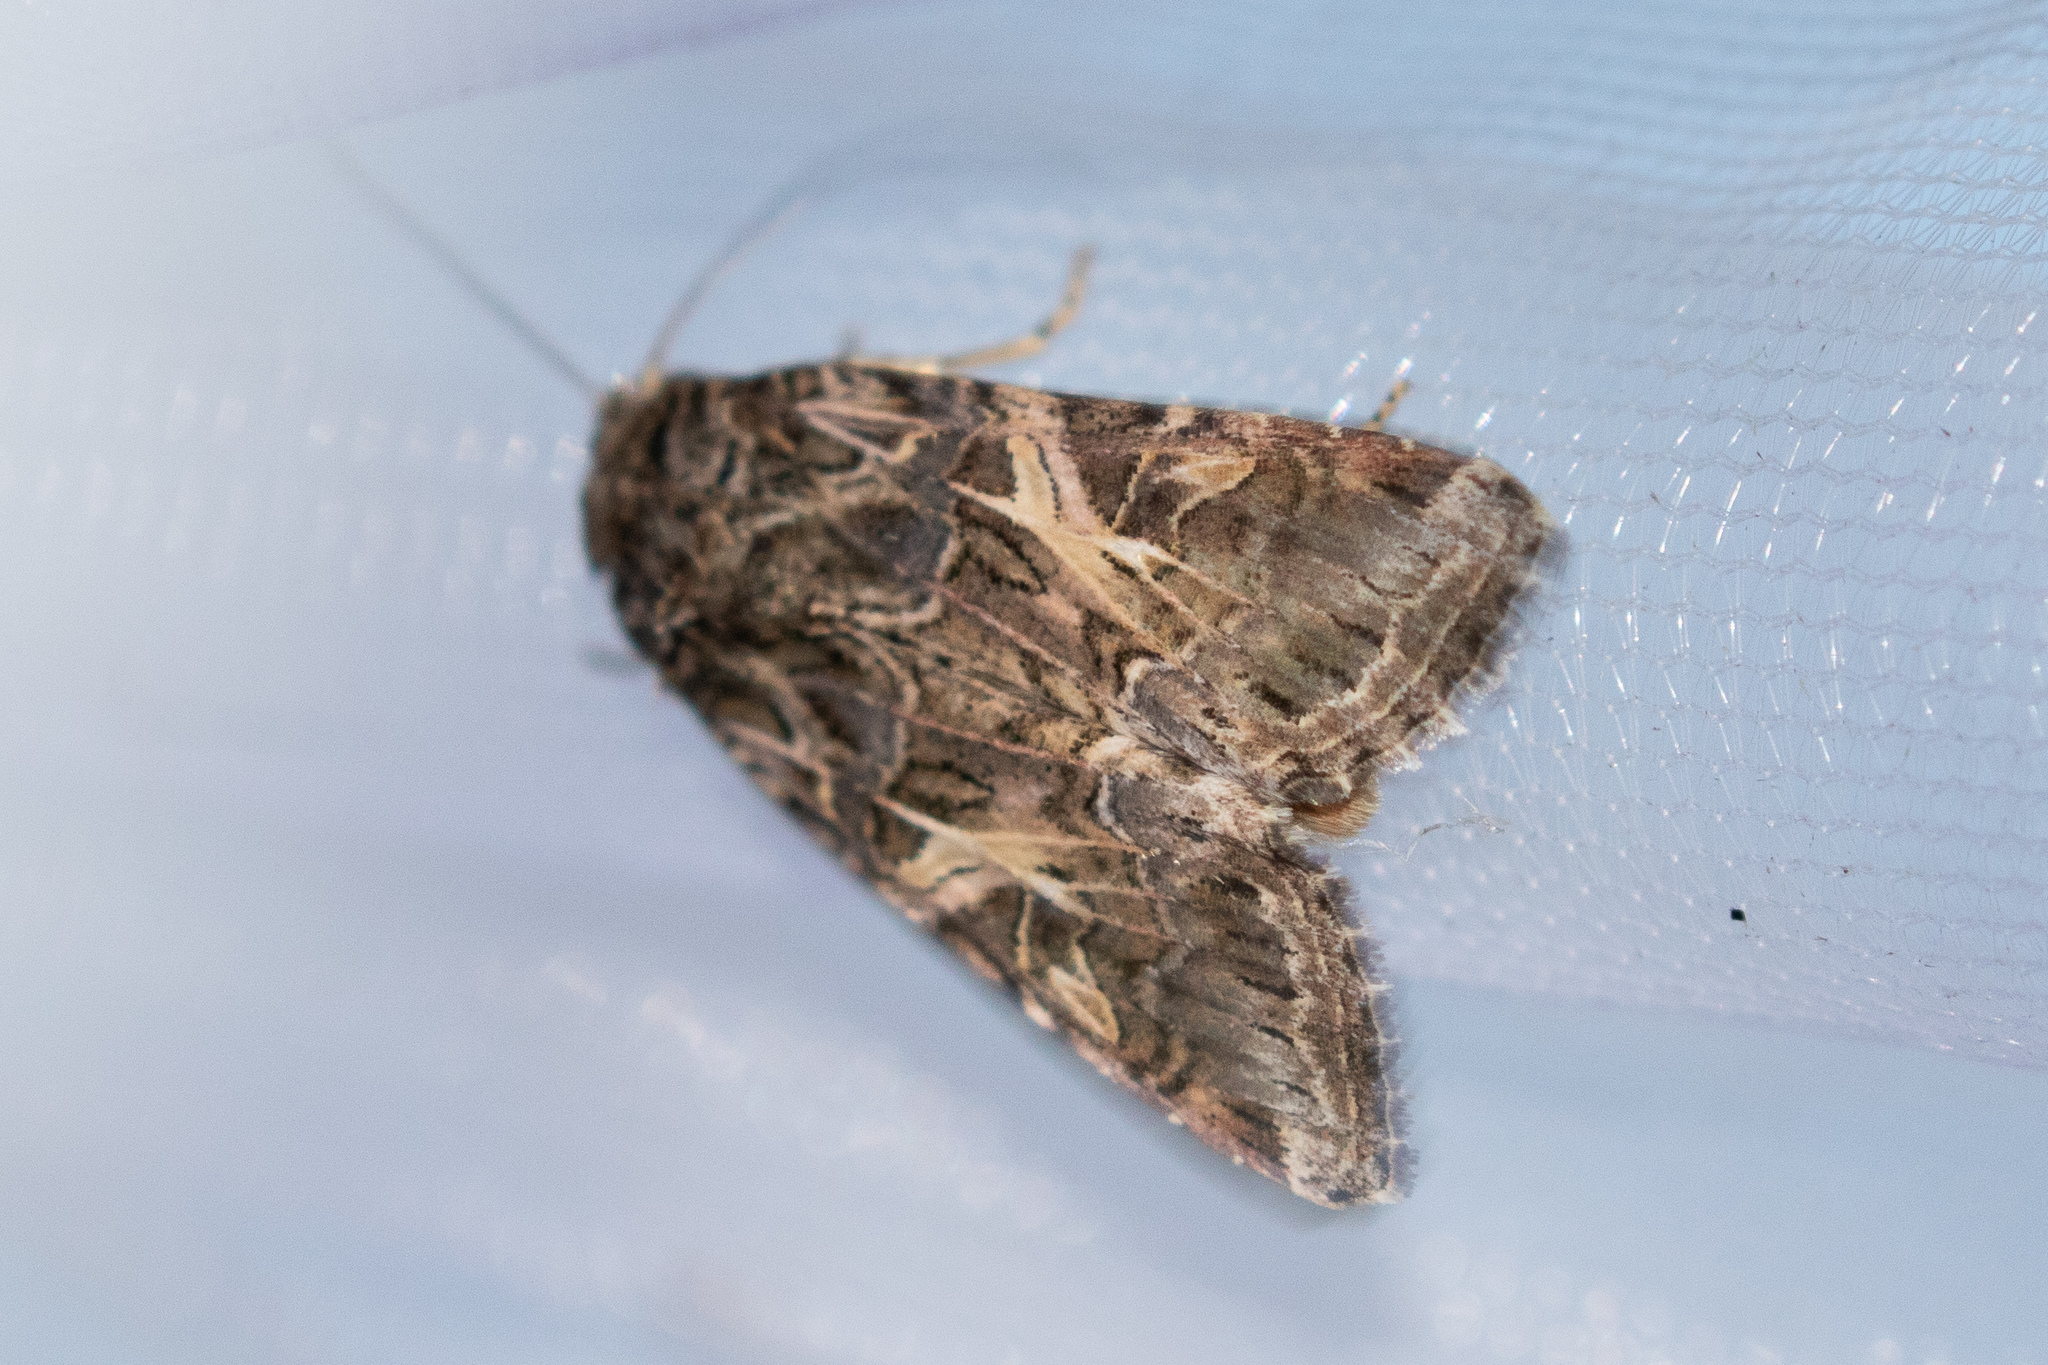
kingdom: Animalia
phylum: Arthropoda
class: Insecta
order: Lepidoptera
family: Noctuidae
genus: Spodoptera
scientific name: Spodoptera ornithogalli
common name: Yellow-striped armyworm
